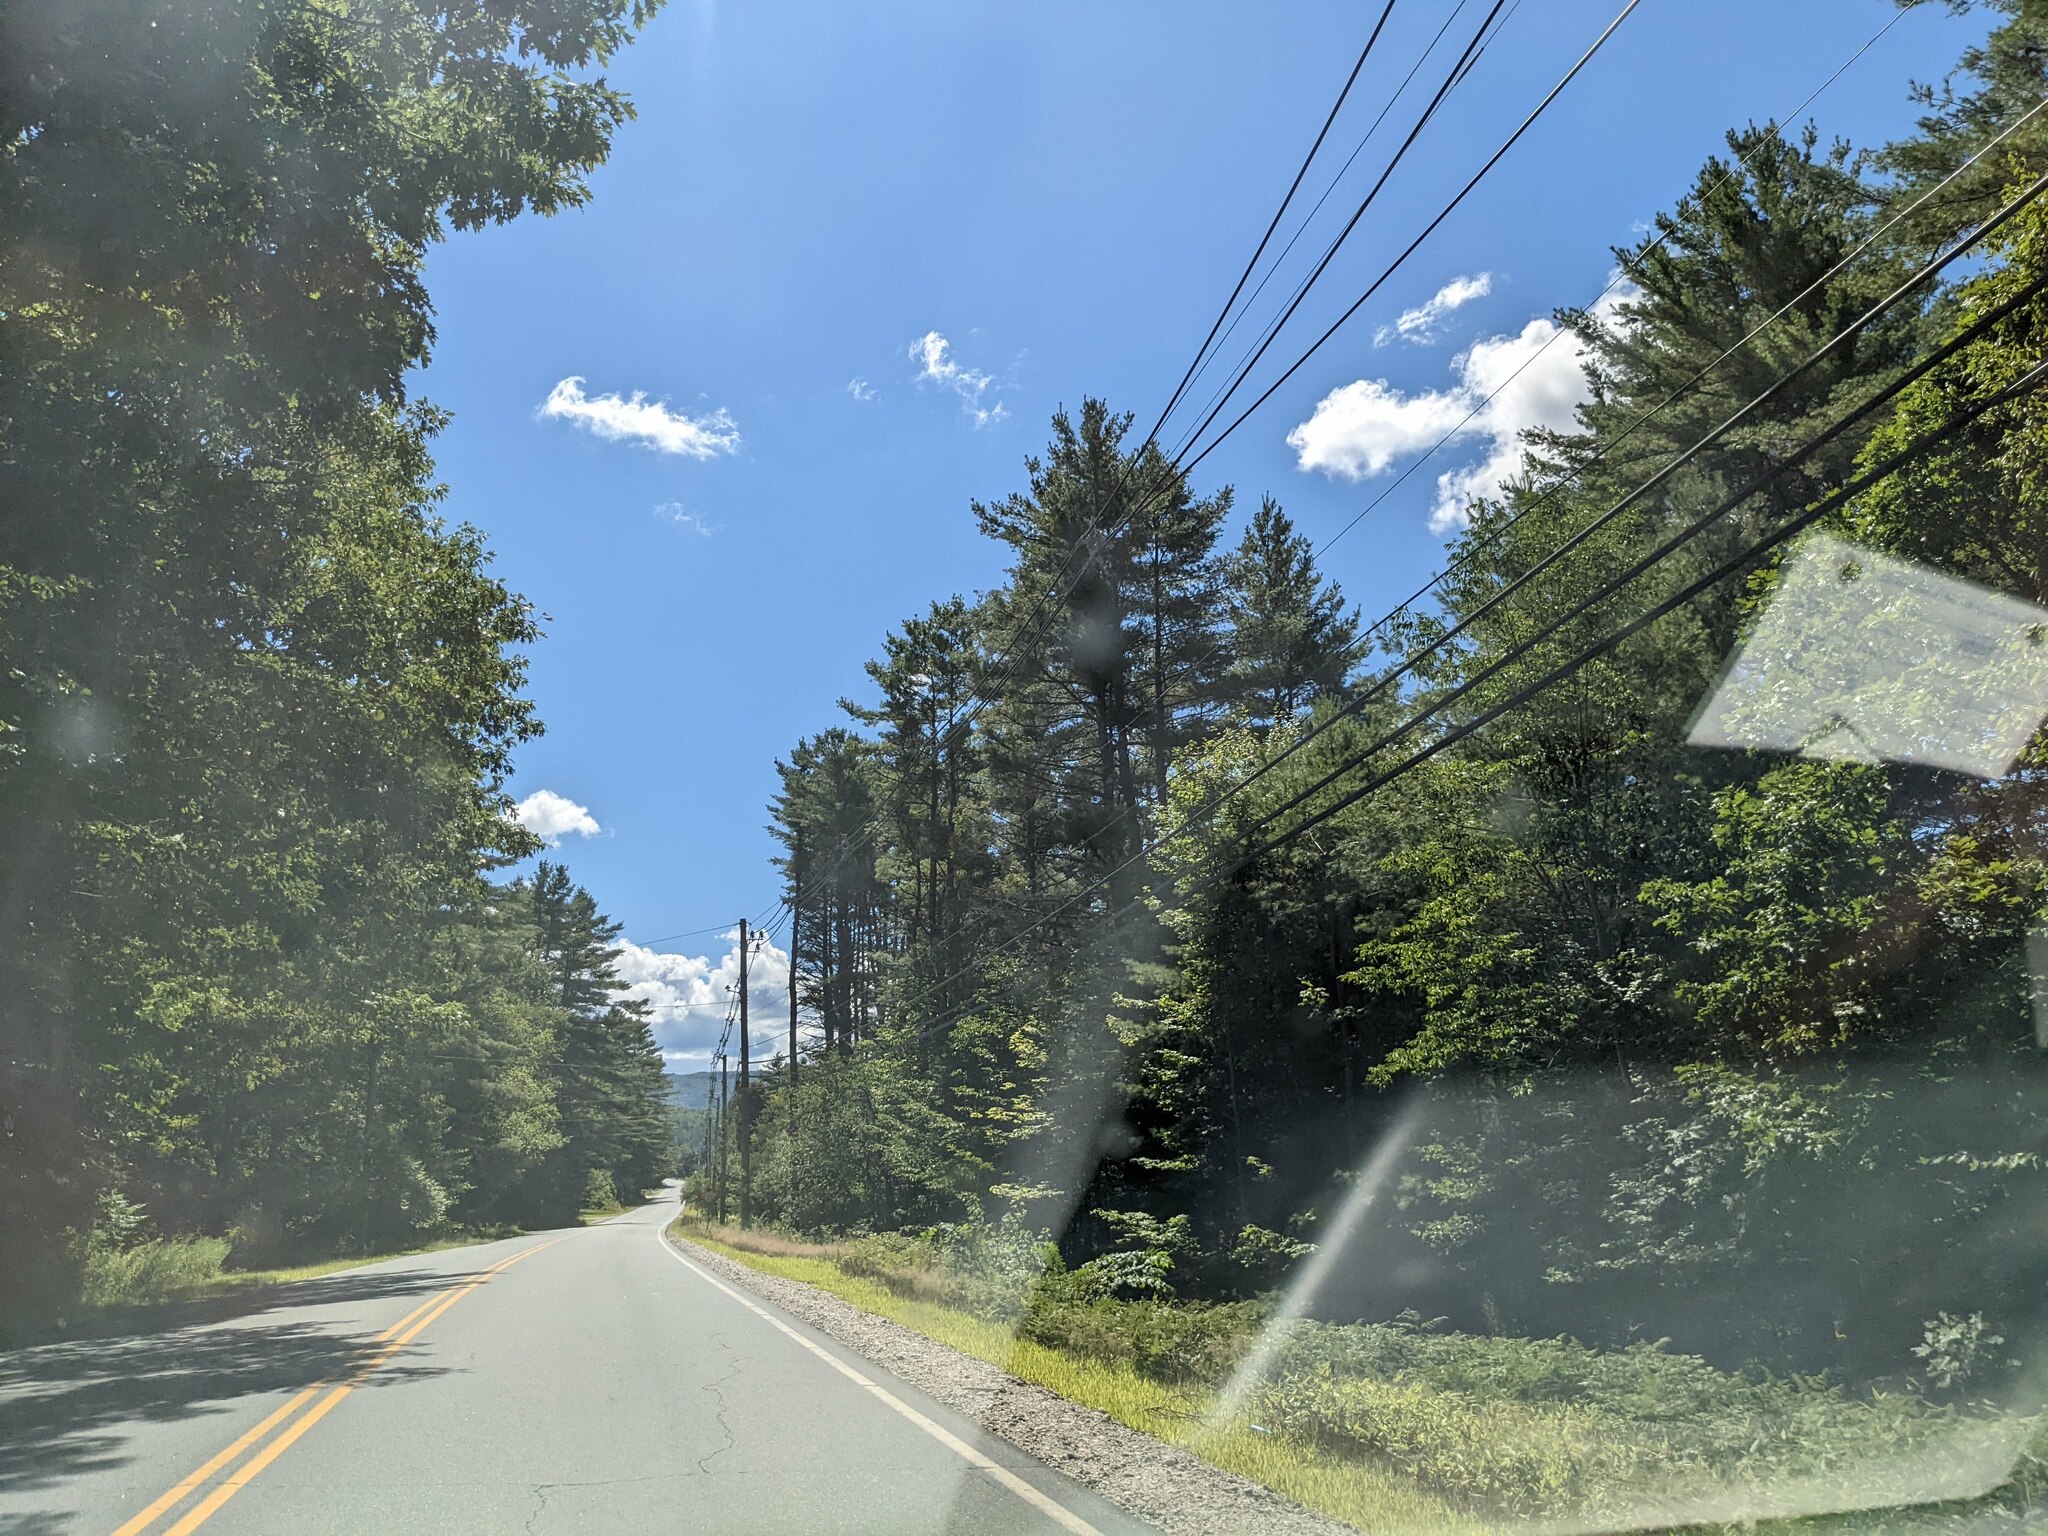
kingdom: Plantae
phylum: Tracheophyta
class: Pinopsida
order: Pinales
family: Pinaceae
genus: Pinus
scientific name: Pinus strobus
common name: Weymouth pine
